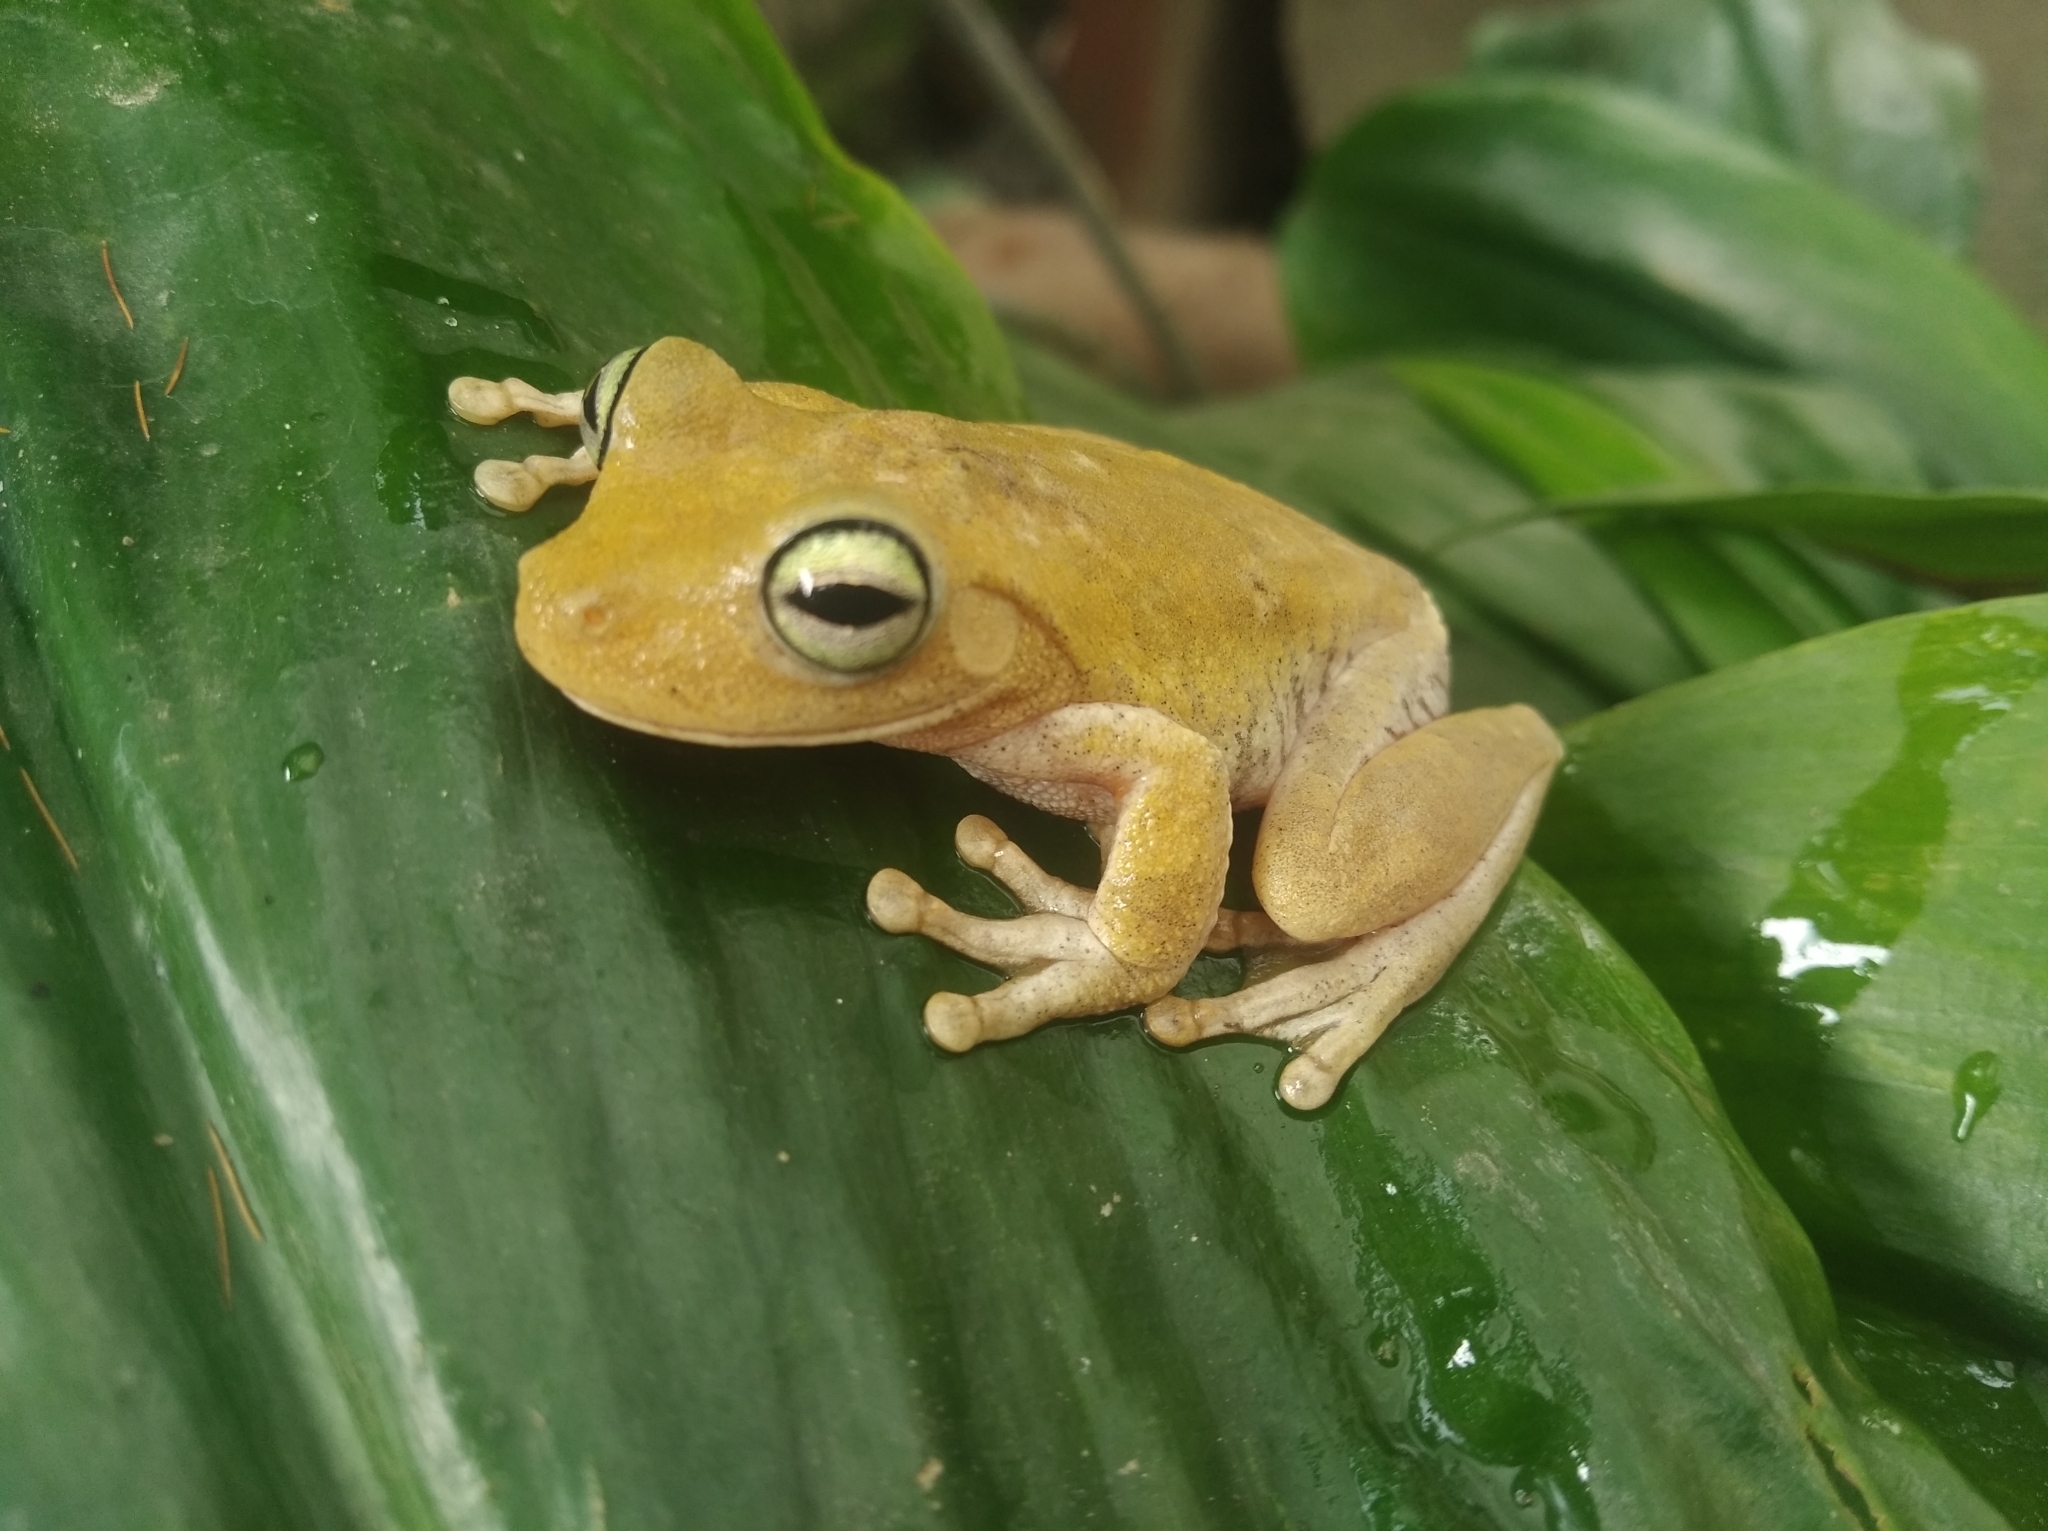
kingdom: Animalia
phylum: Chordata
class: Amphibia
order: Anura
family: Hylidae
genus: Boana
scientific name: Boana platanera
